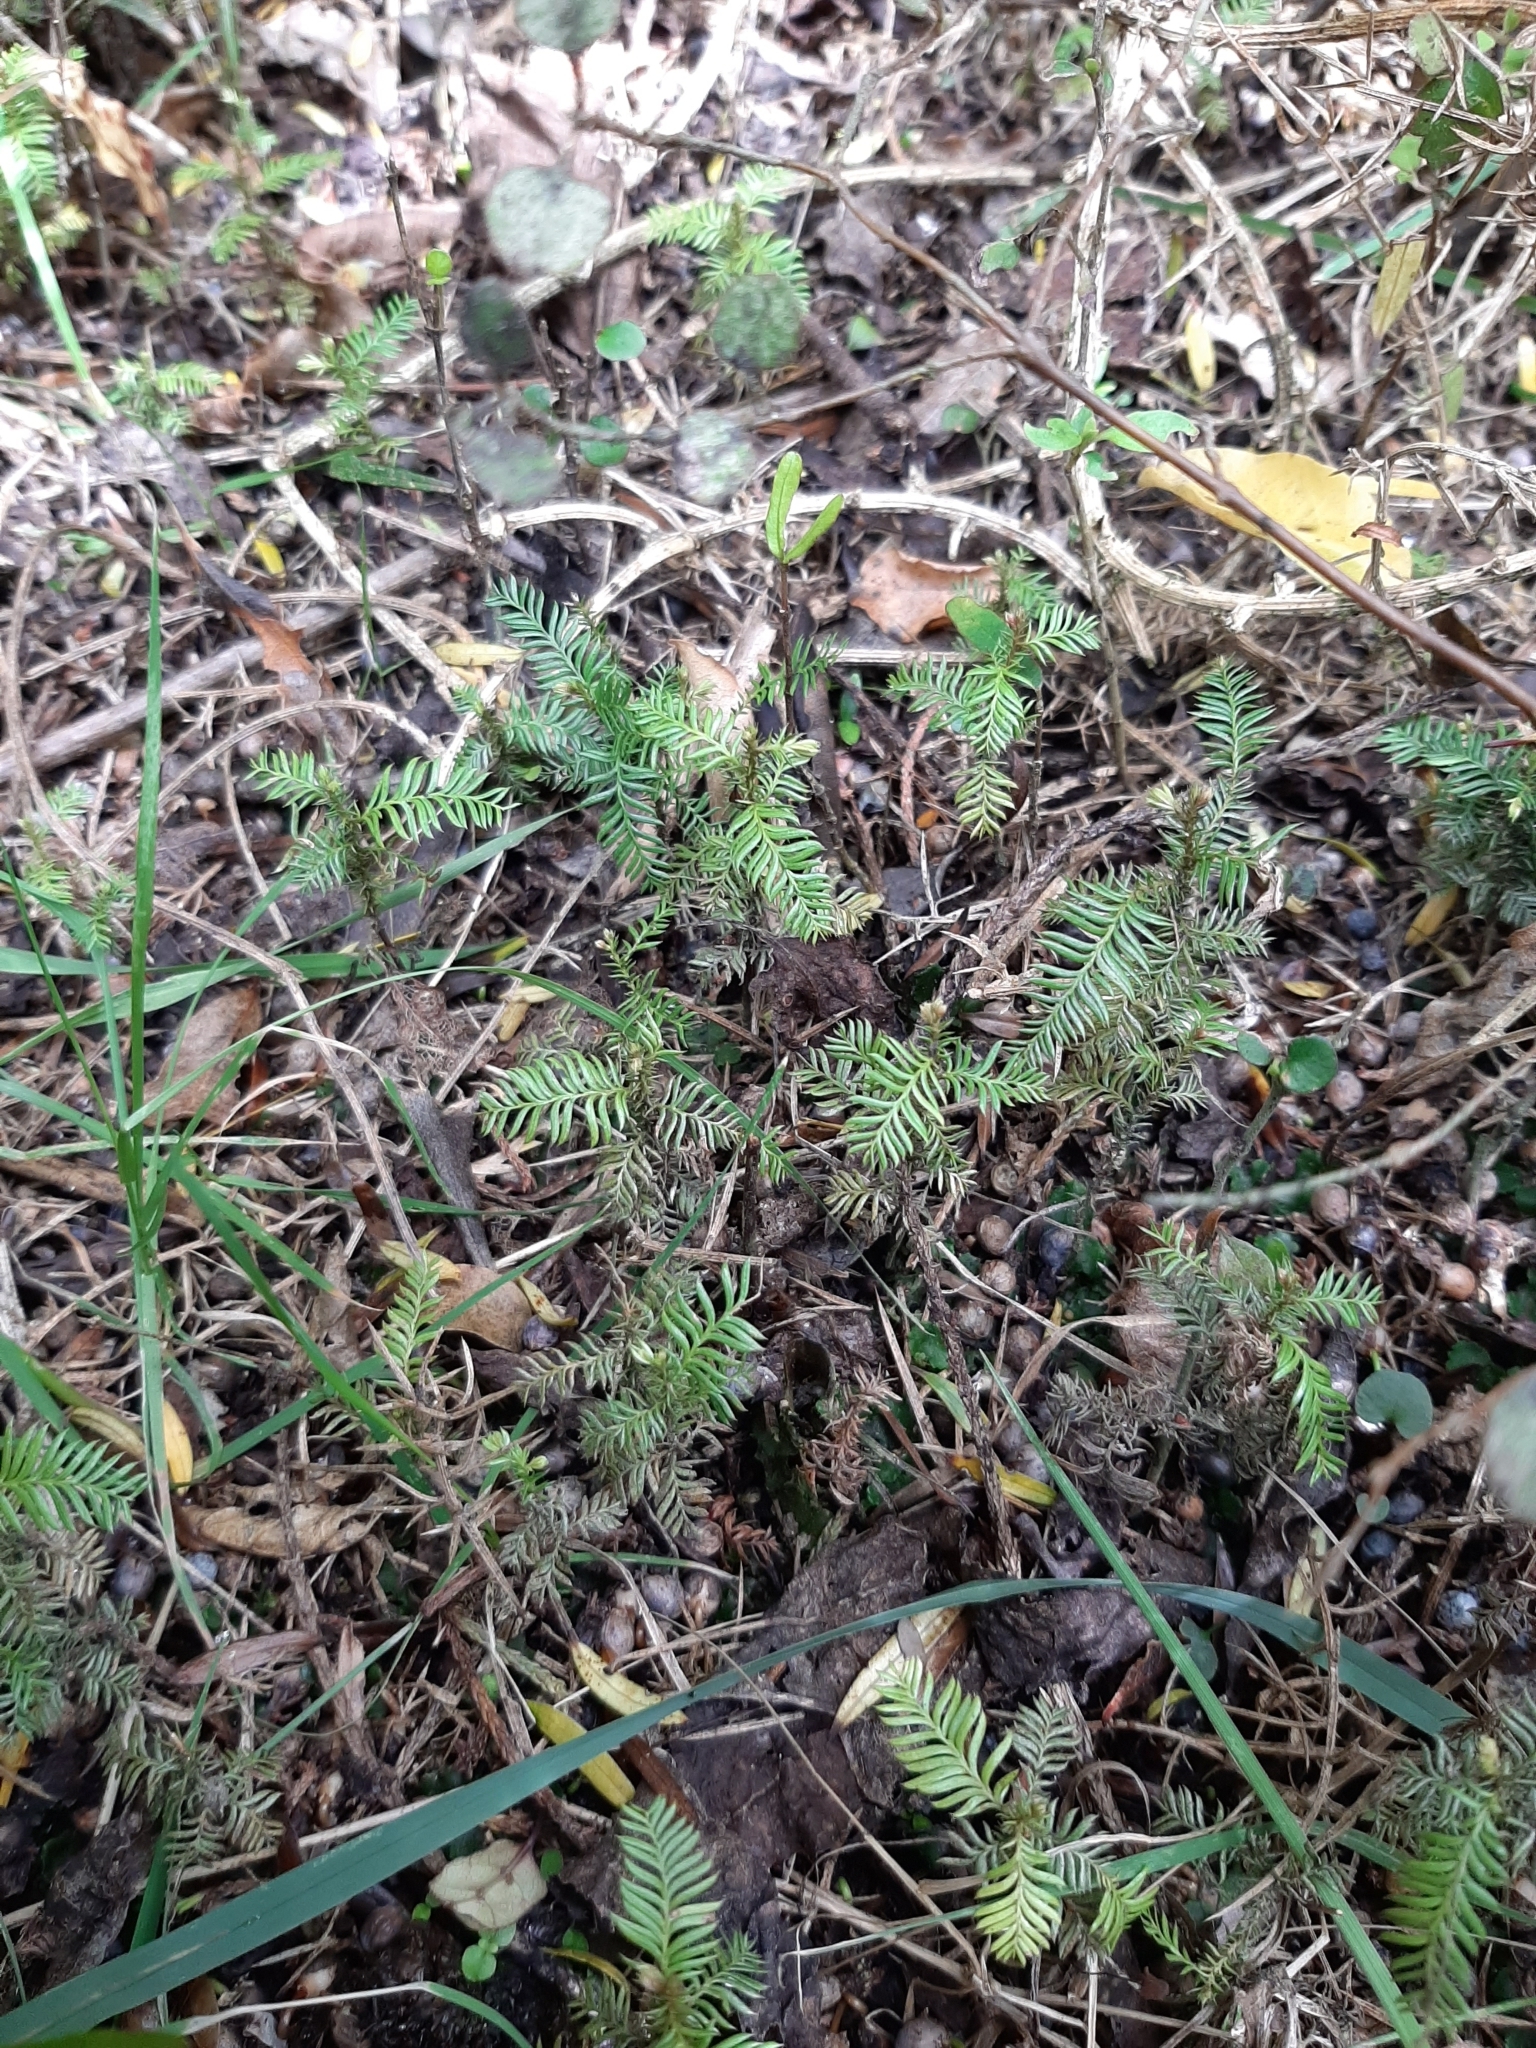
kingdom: Plantae
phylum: Tracheophyta
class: Pinopsida
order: Pinales
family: Podocarpaceae
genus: Dacrycarpus
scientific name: Dacrycarpus dacrydioides
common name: White pine
